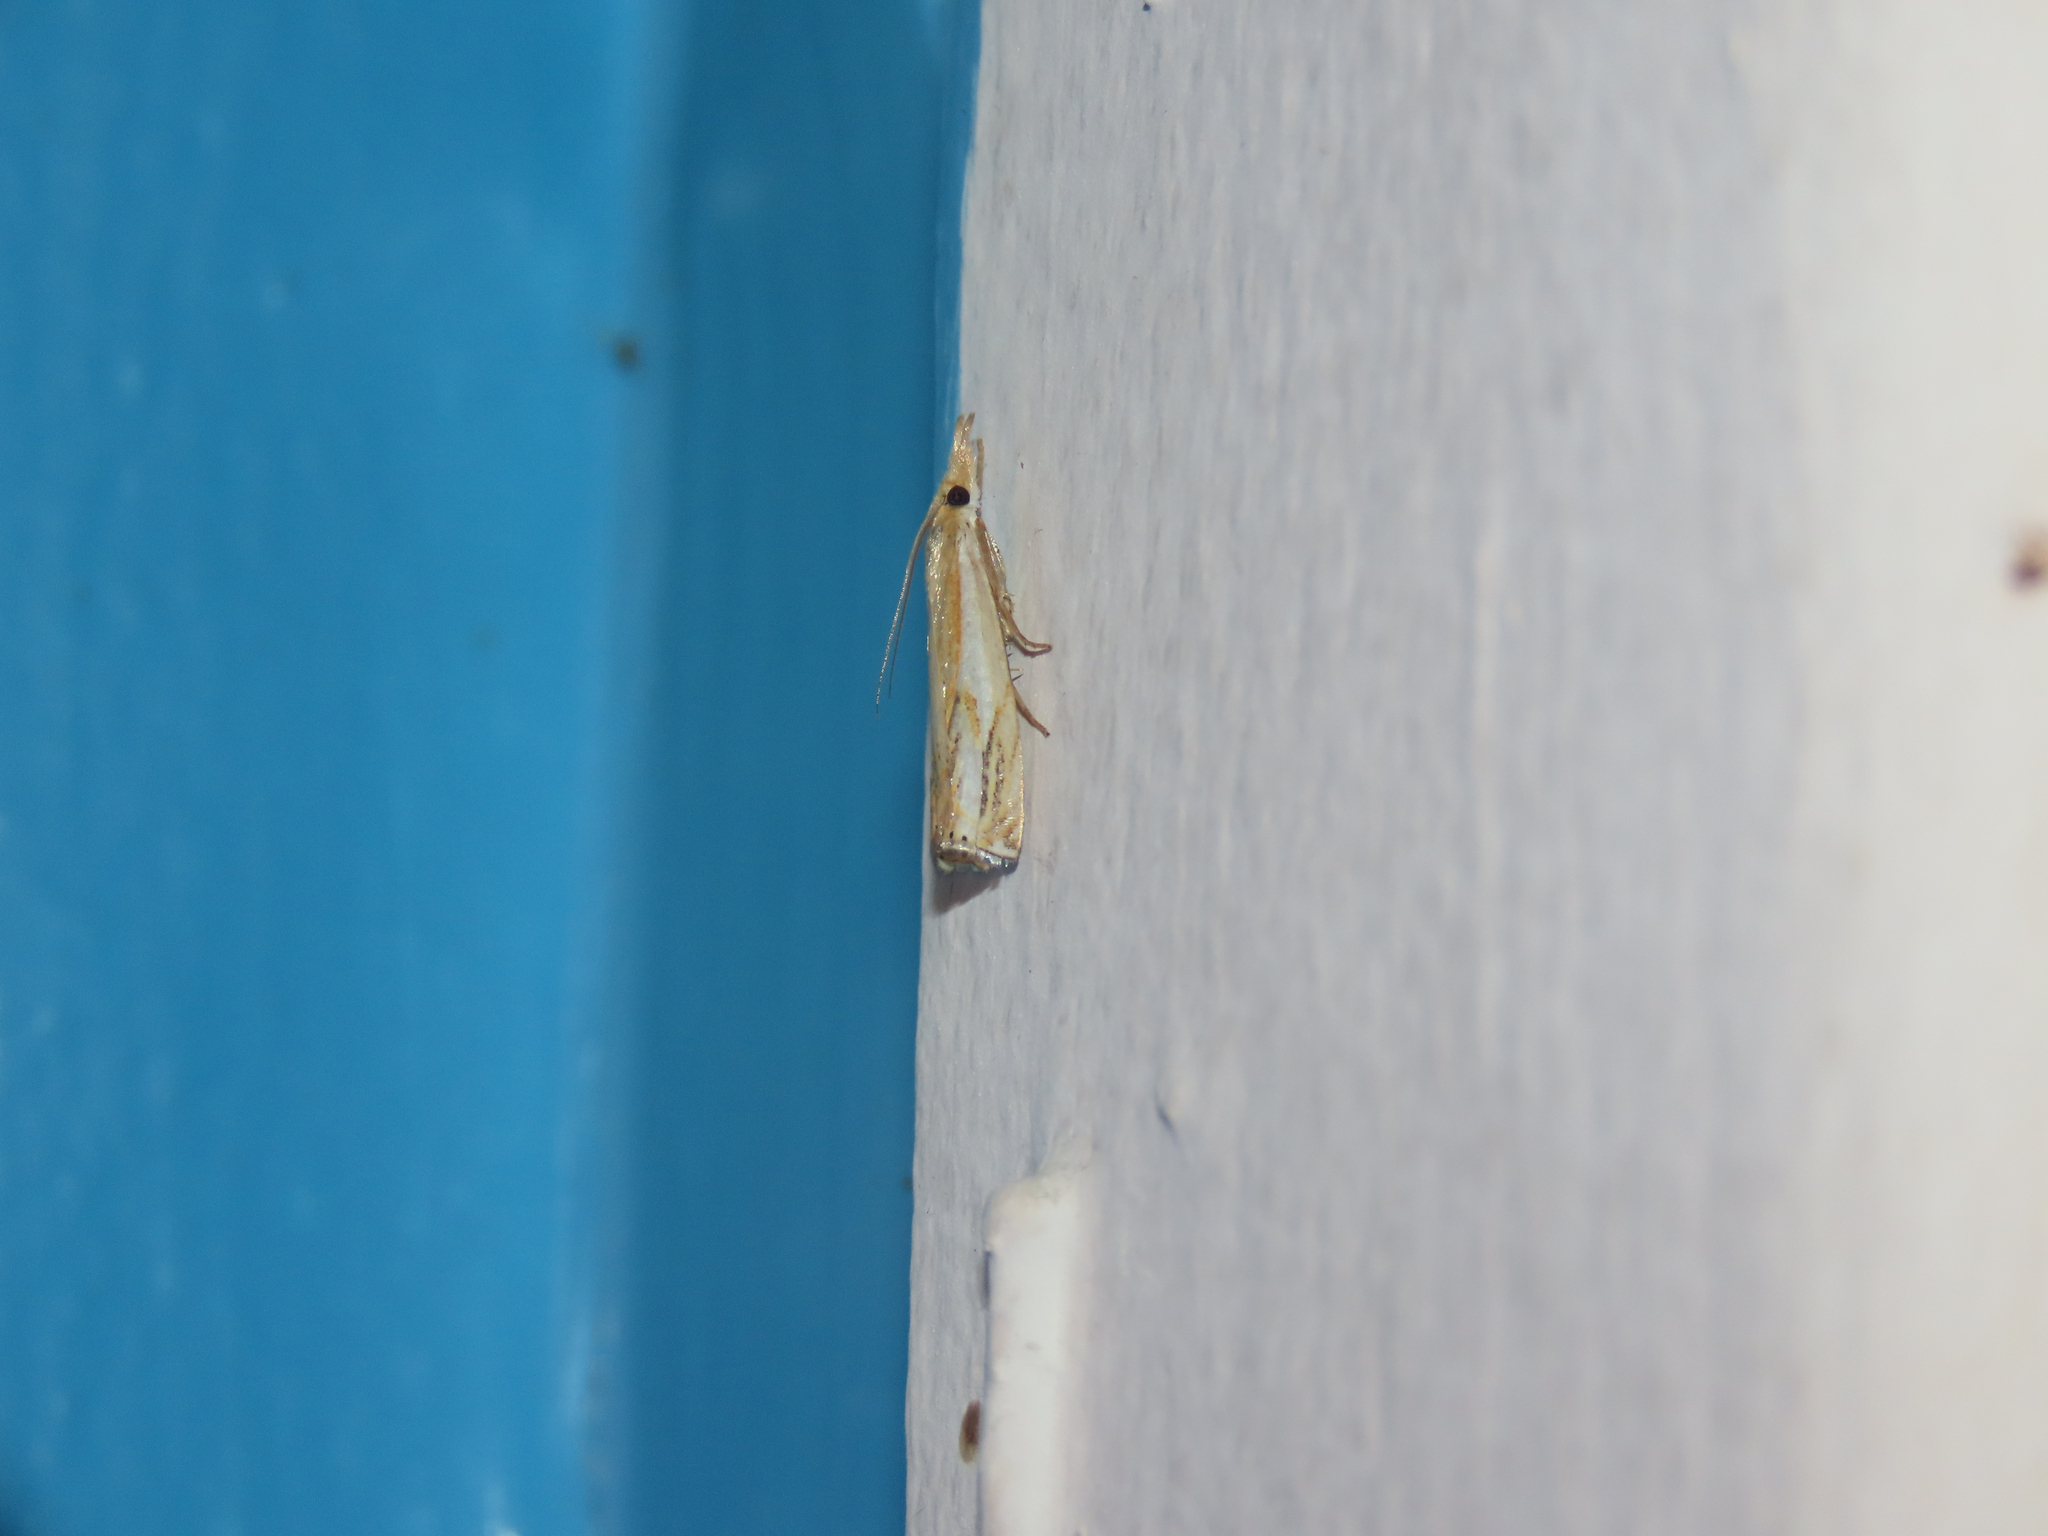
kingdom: Animalia
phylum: Arthropoda
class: Insecta
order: Lepidoptera
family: Crambidae
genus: Crambus
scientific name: Crambus agitatellus
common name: Double-banded grass-veneer
